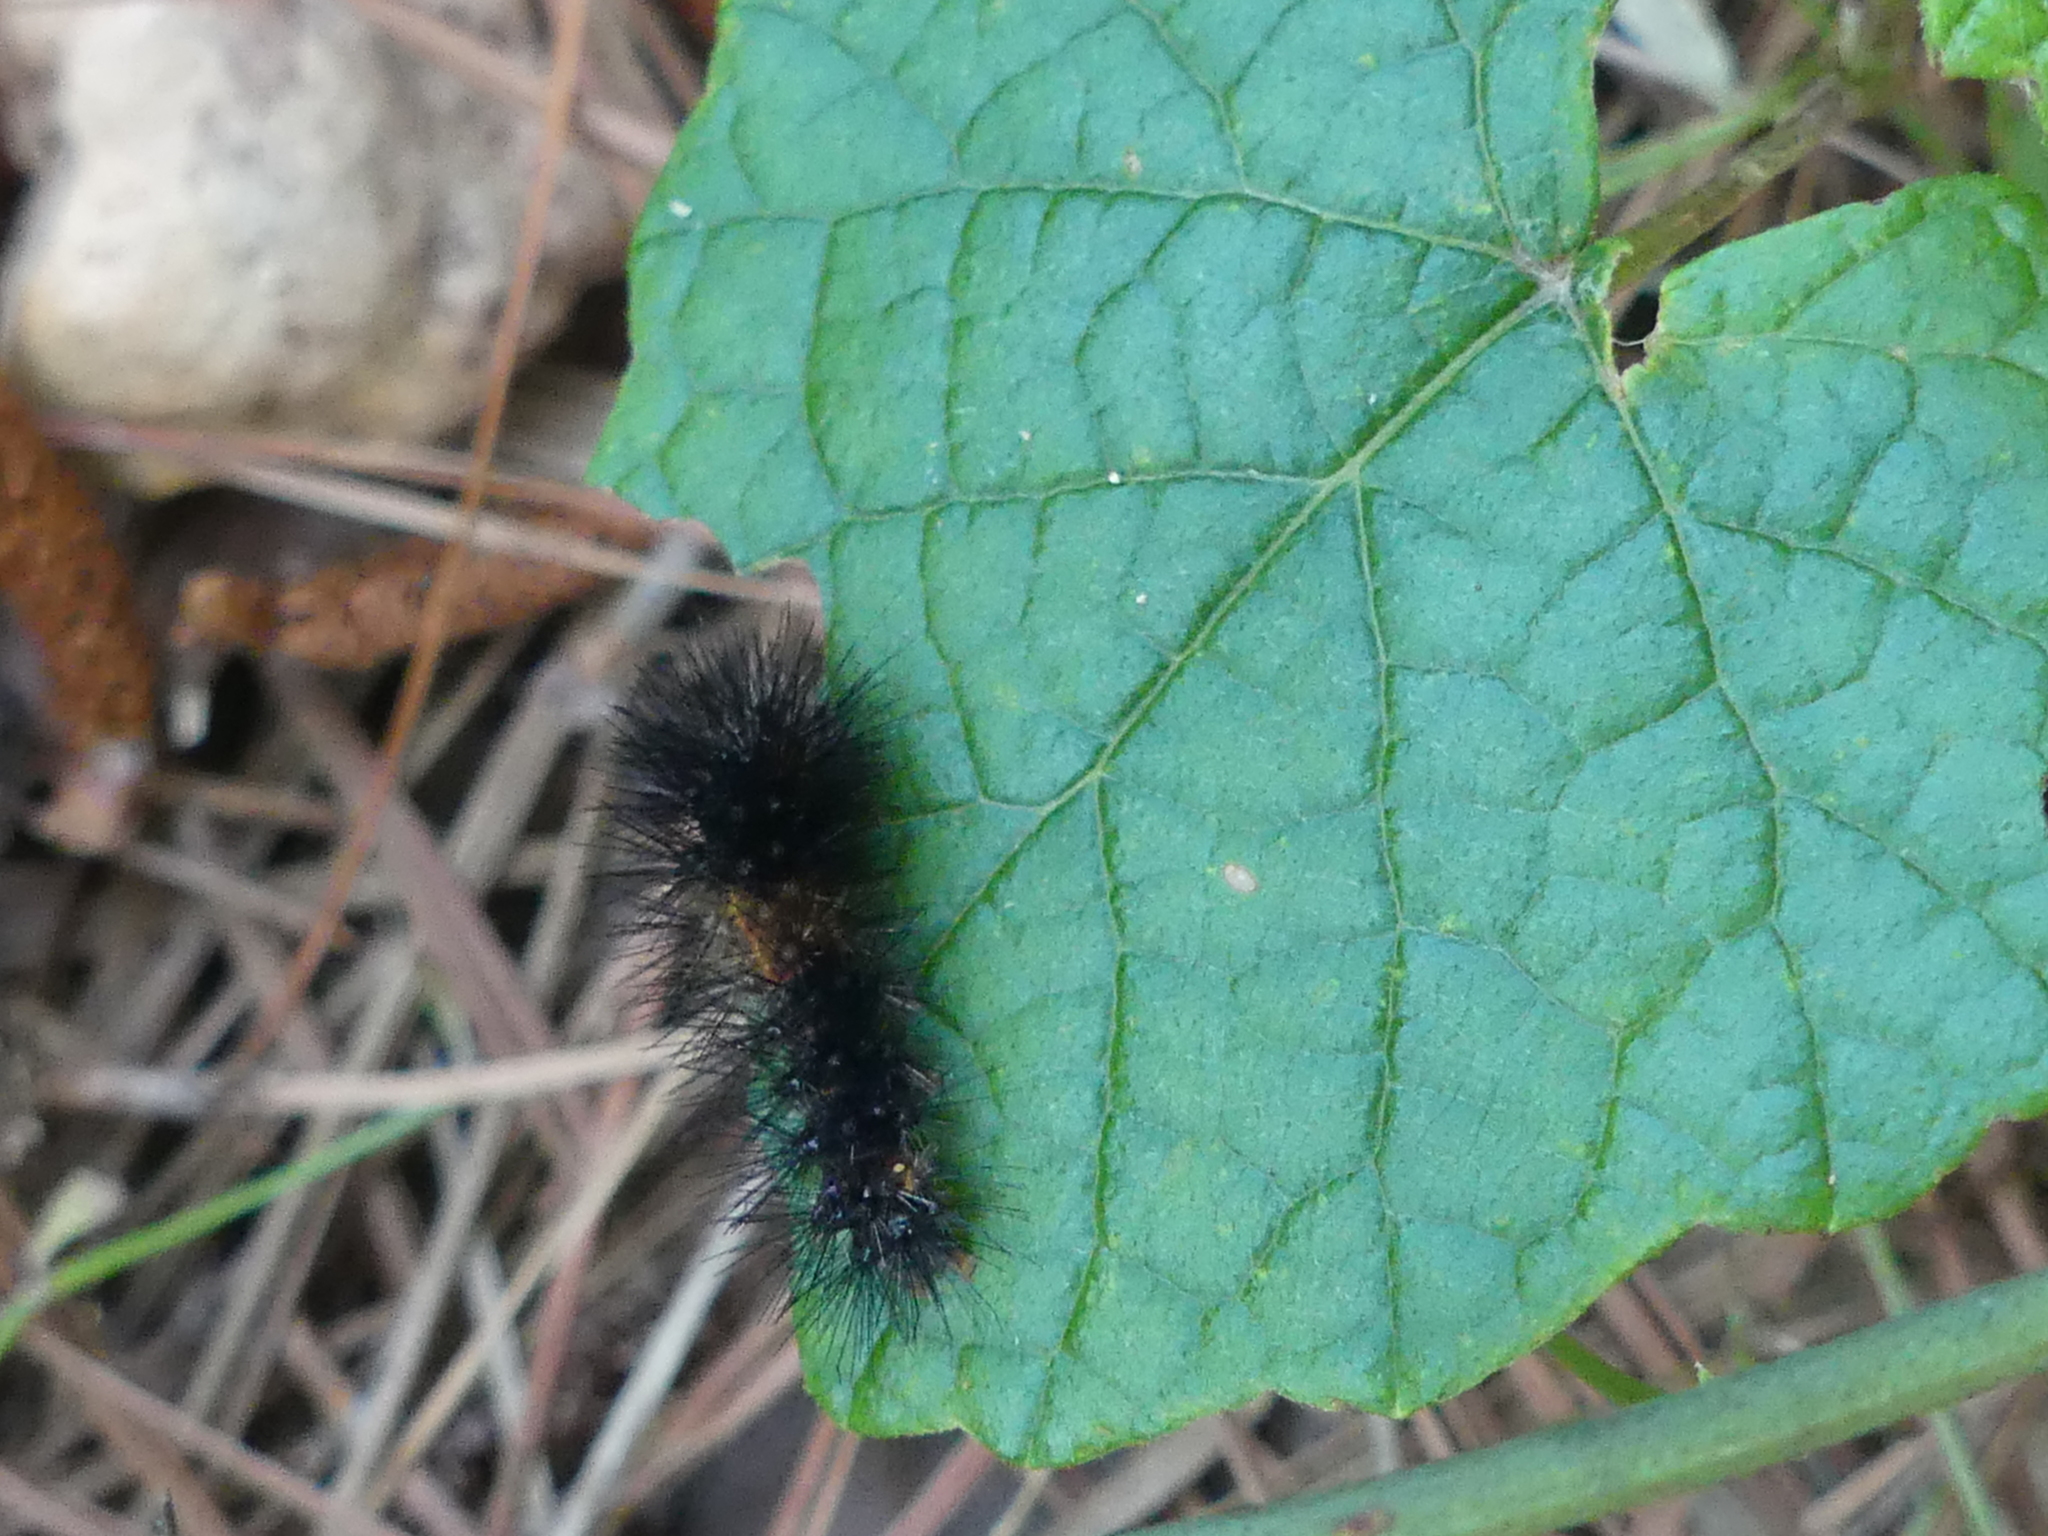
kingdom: Animalia
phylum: Arthropoda
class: Insecta
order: Lepidoptera
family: Erebidae
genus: Hypercompe
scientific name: Hypercompe scribonia
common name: Giant leopard moth
